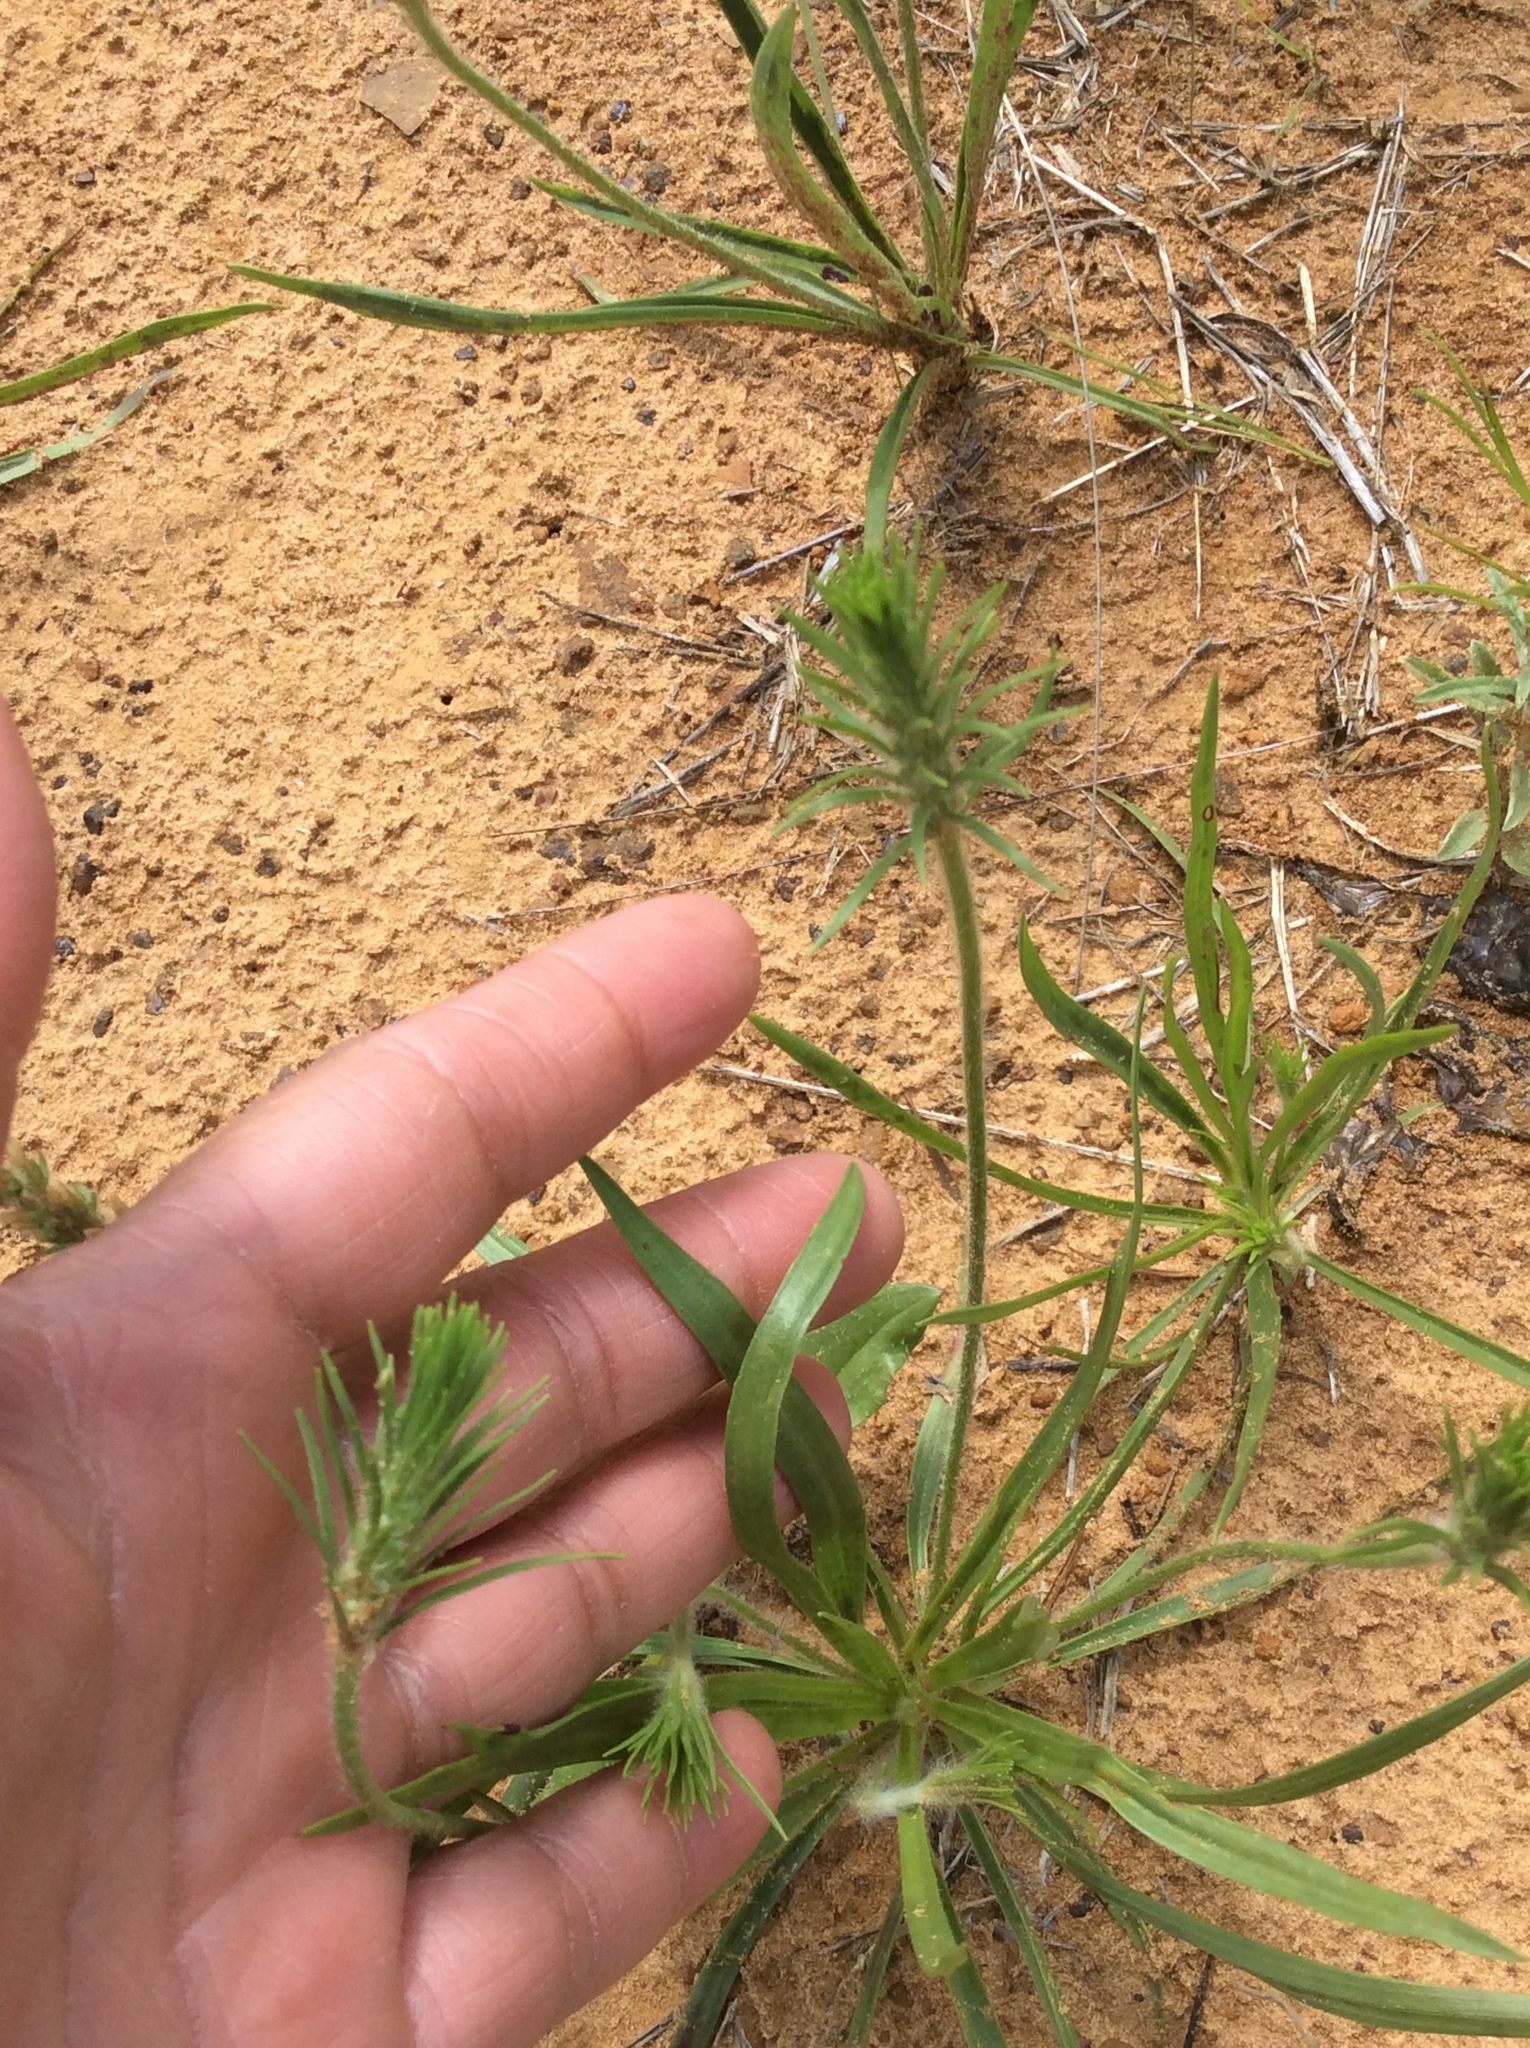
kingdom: Plantae
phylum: Tracheophyta
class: Magnoliopsida
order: Lamiales
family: Plantaginaceae
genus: Plantago
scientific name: Plantago aristata
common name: Bracted plantain
